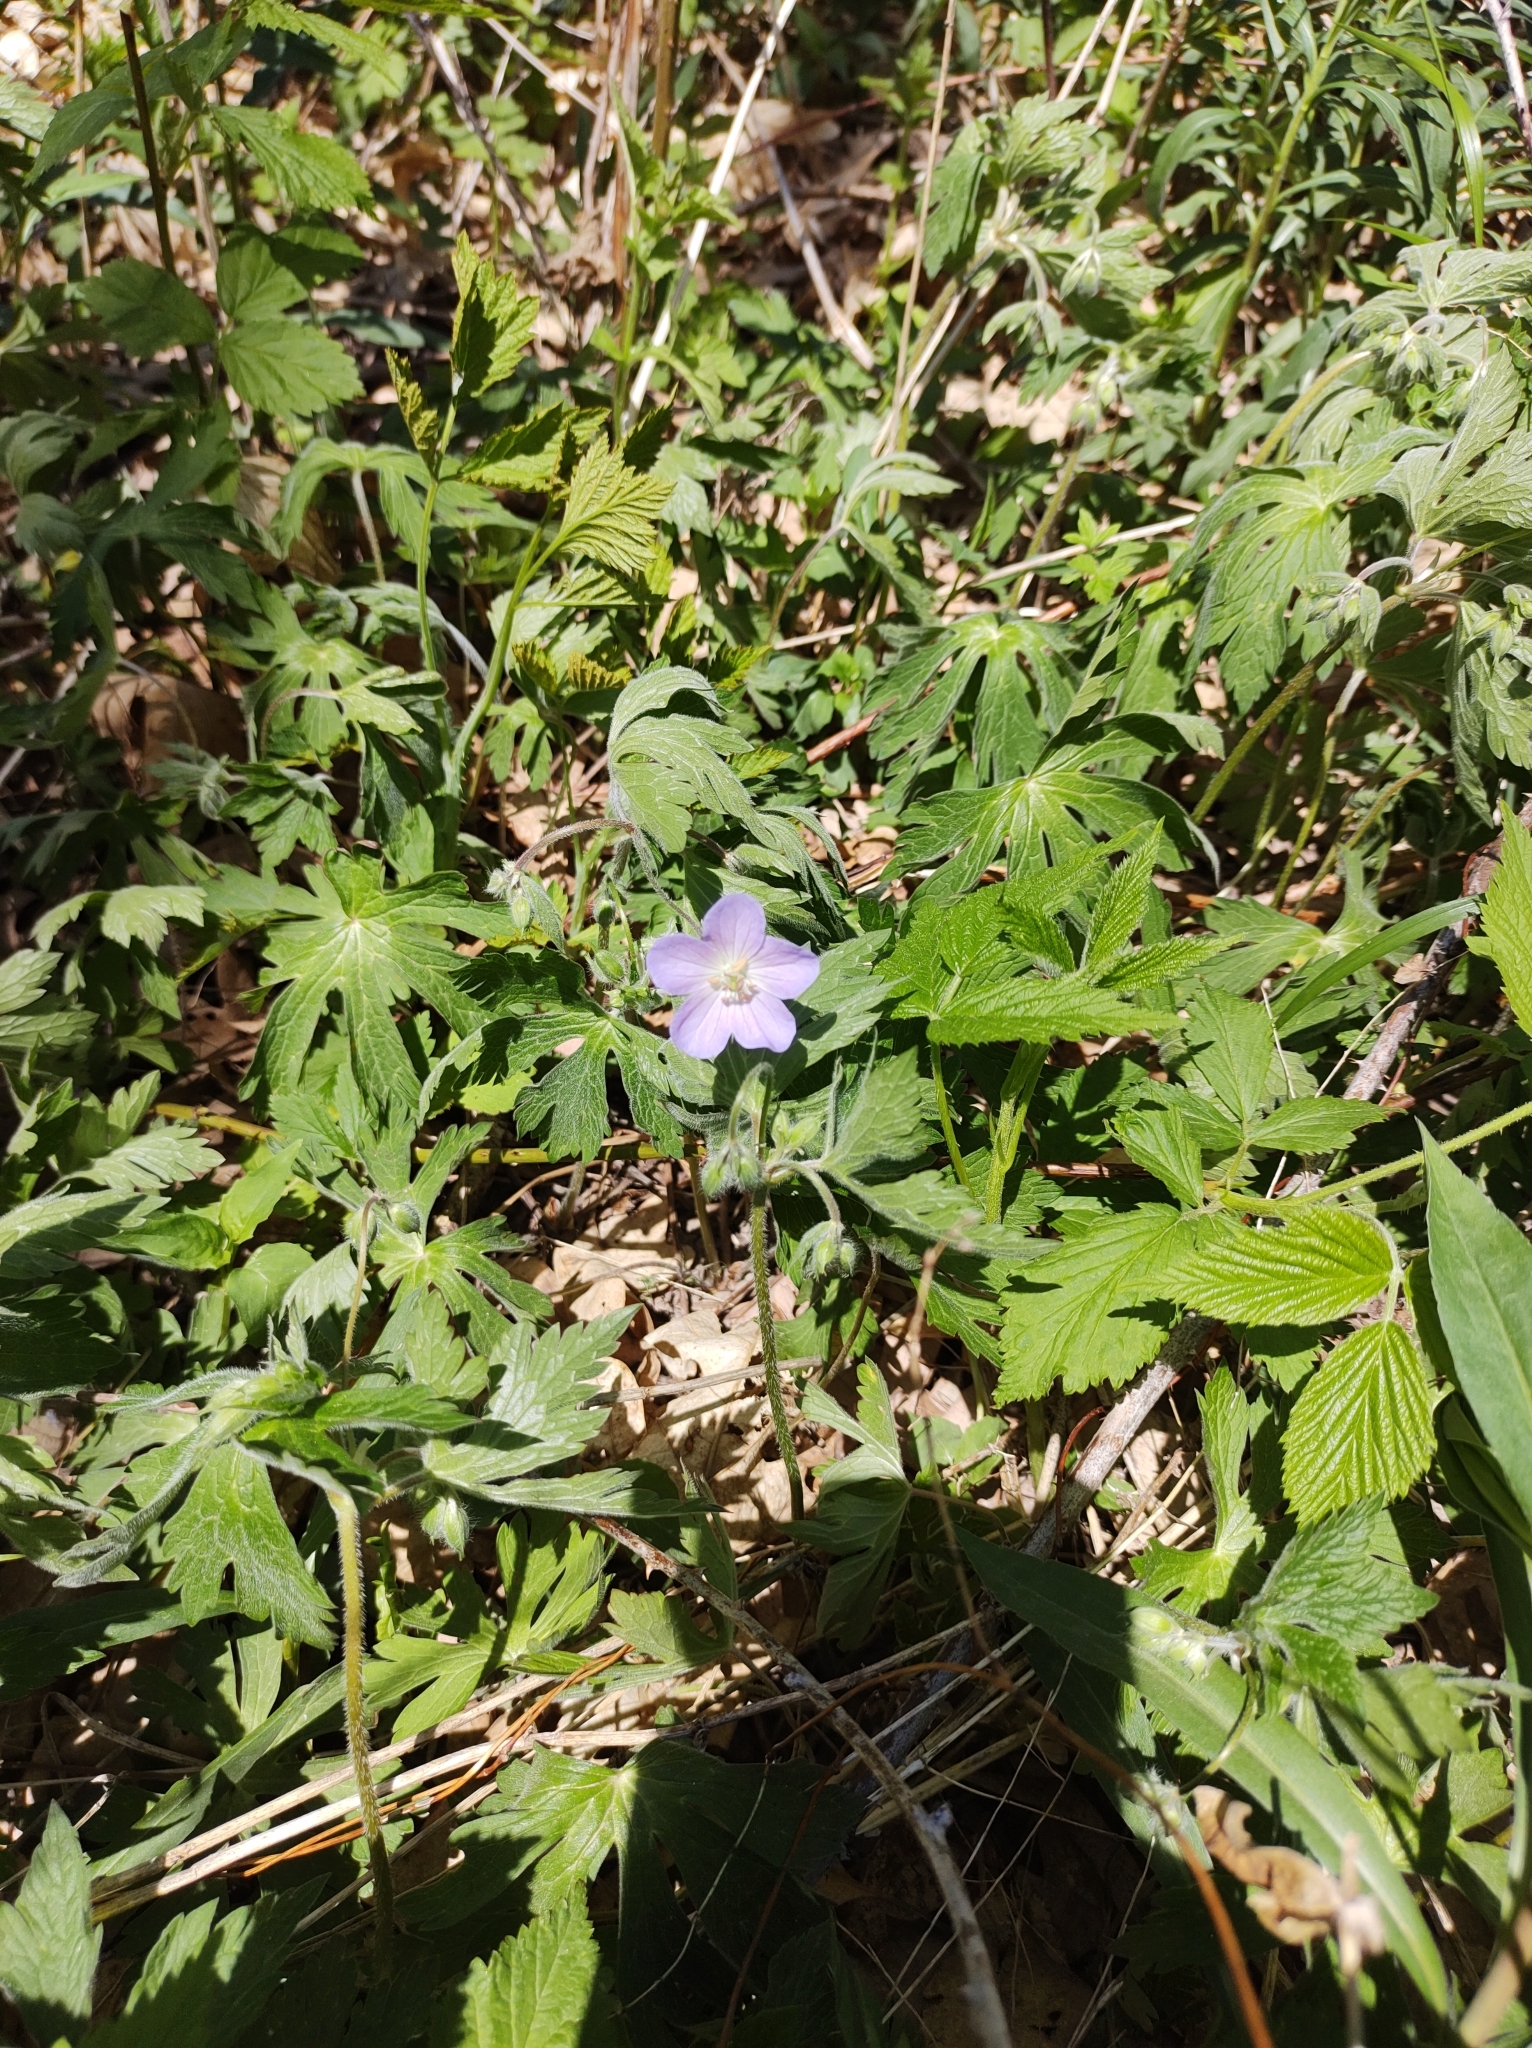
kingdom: Plantae
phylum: Tracheophyta
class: Magnoliopsida
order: Geraniales
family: Geraniaceae
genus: Geranium
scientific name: Geranium maculatum
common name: Spotted geranium
